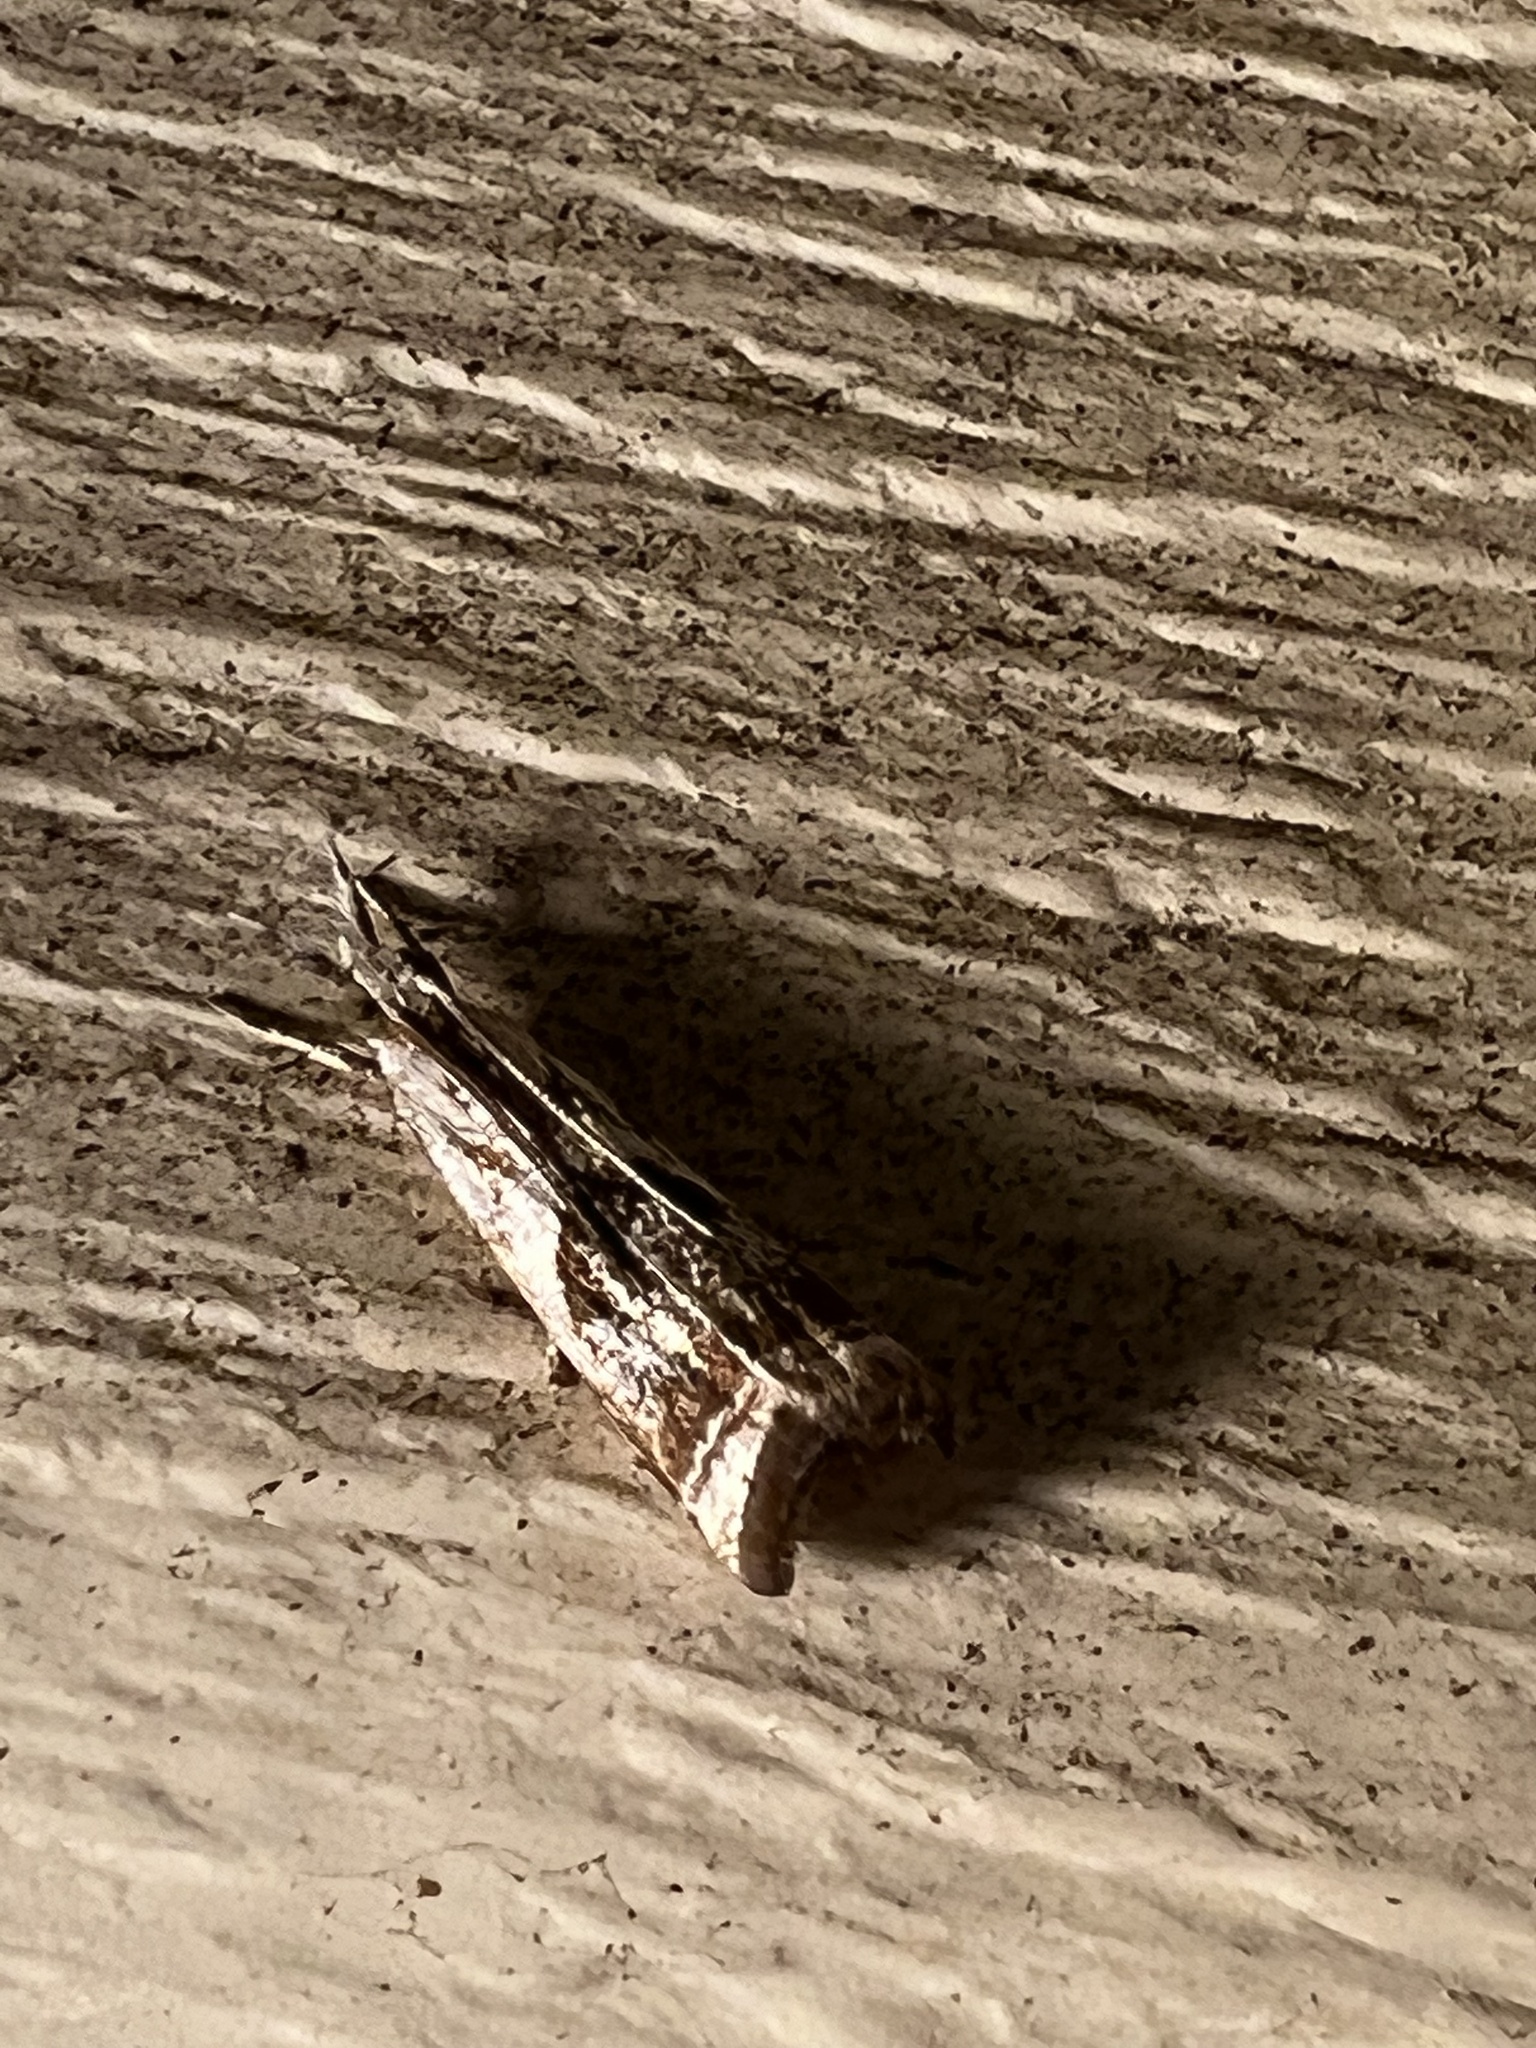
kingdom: Animalia
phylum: Arthropoda
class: Insecta
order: Lepidoptera
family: Crambidae
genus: Microcrambus
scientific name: Microcrambus elegans
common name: Elegant grass-veneer
